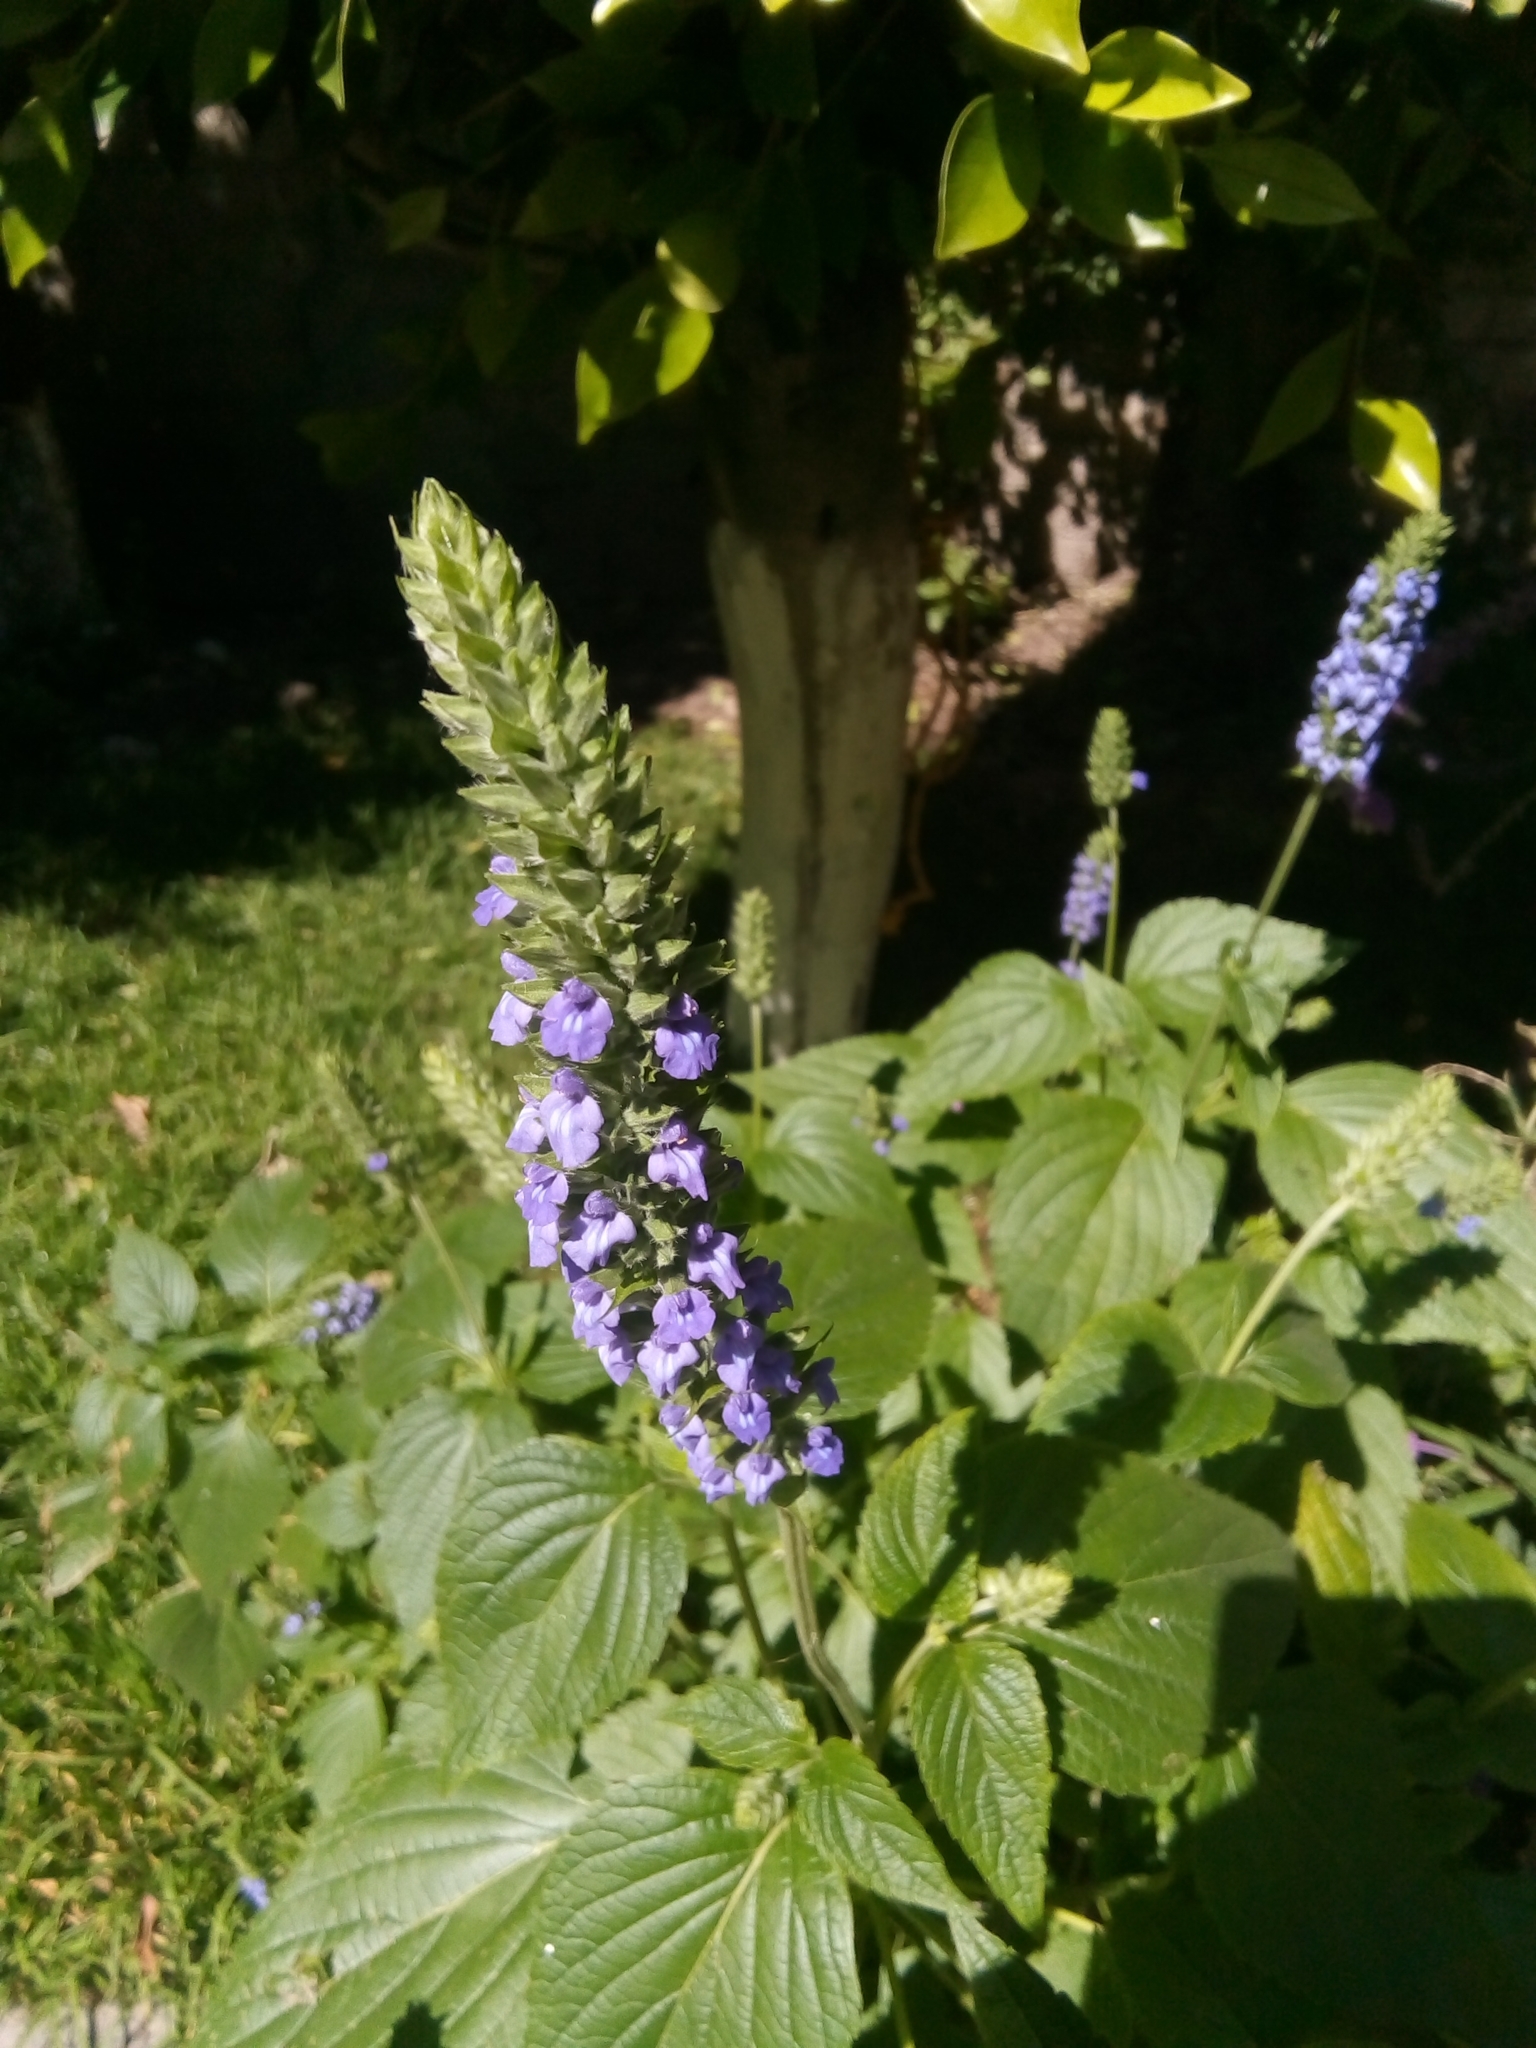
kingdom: Plantae
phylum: Tracheophyta
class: Magnoliopsida
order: Lamiales
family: Lamiaceae
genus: Salvia
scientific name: Salvia hispanica
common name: Chia
